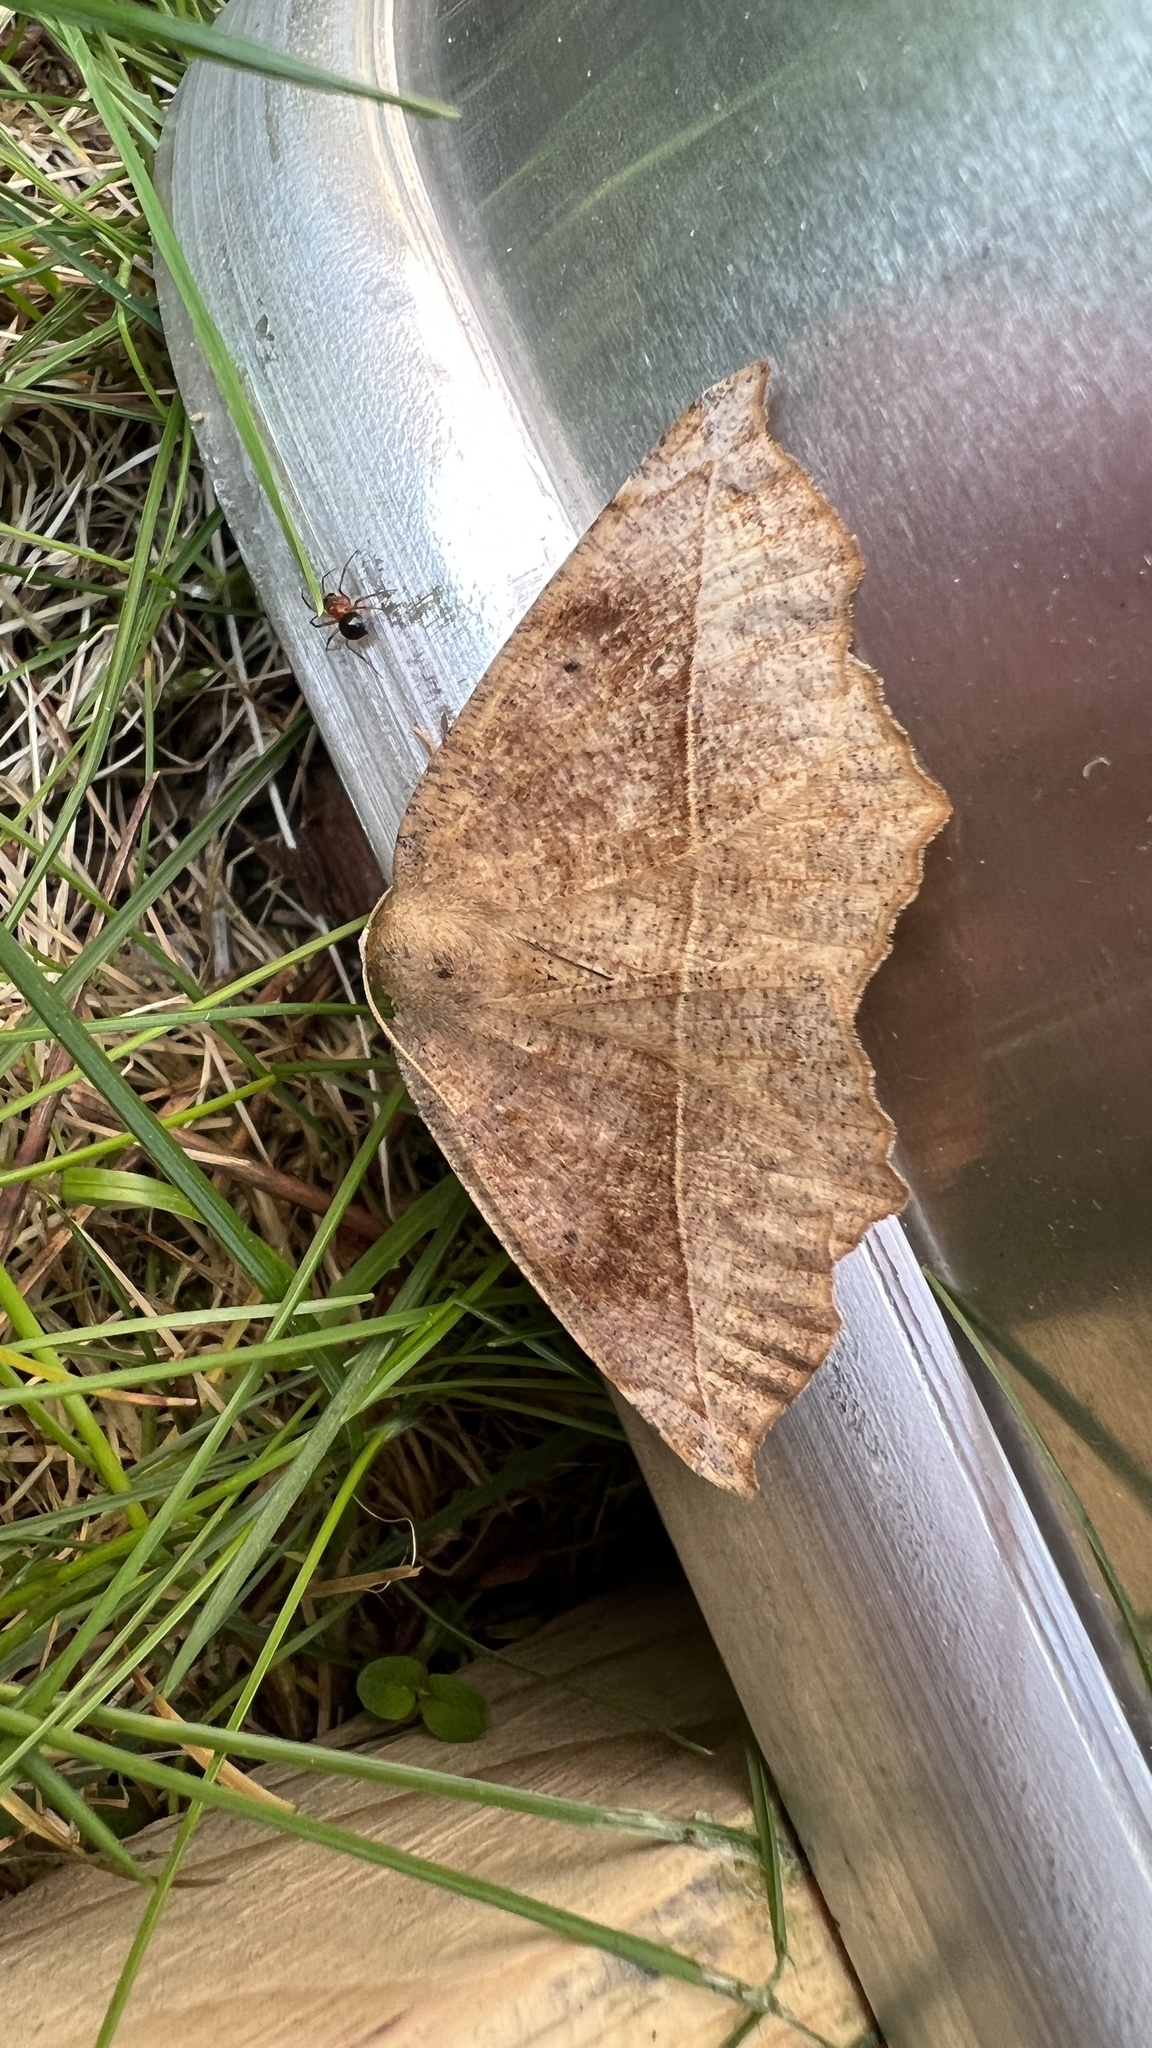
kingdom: Animalia
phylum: Arthropoda
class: Insecta
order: Lepidoptera
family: Geometridae
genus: Eutrapela
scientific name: Eutrapela clemataria
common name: Curved-toothed geometer
